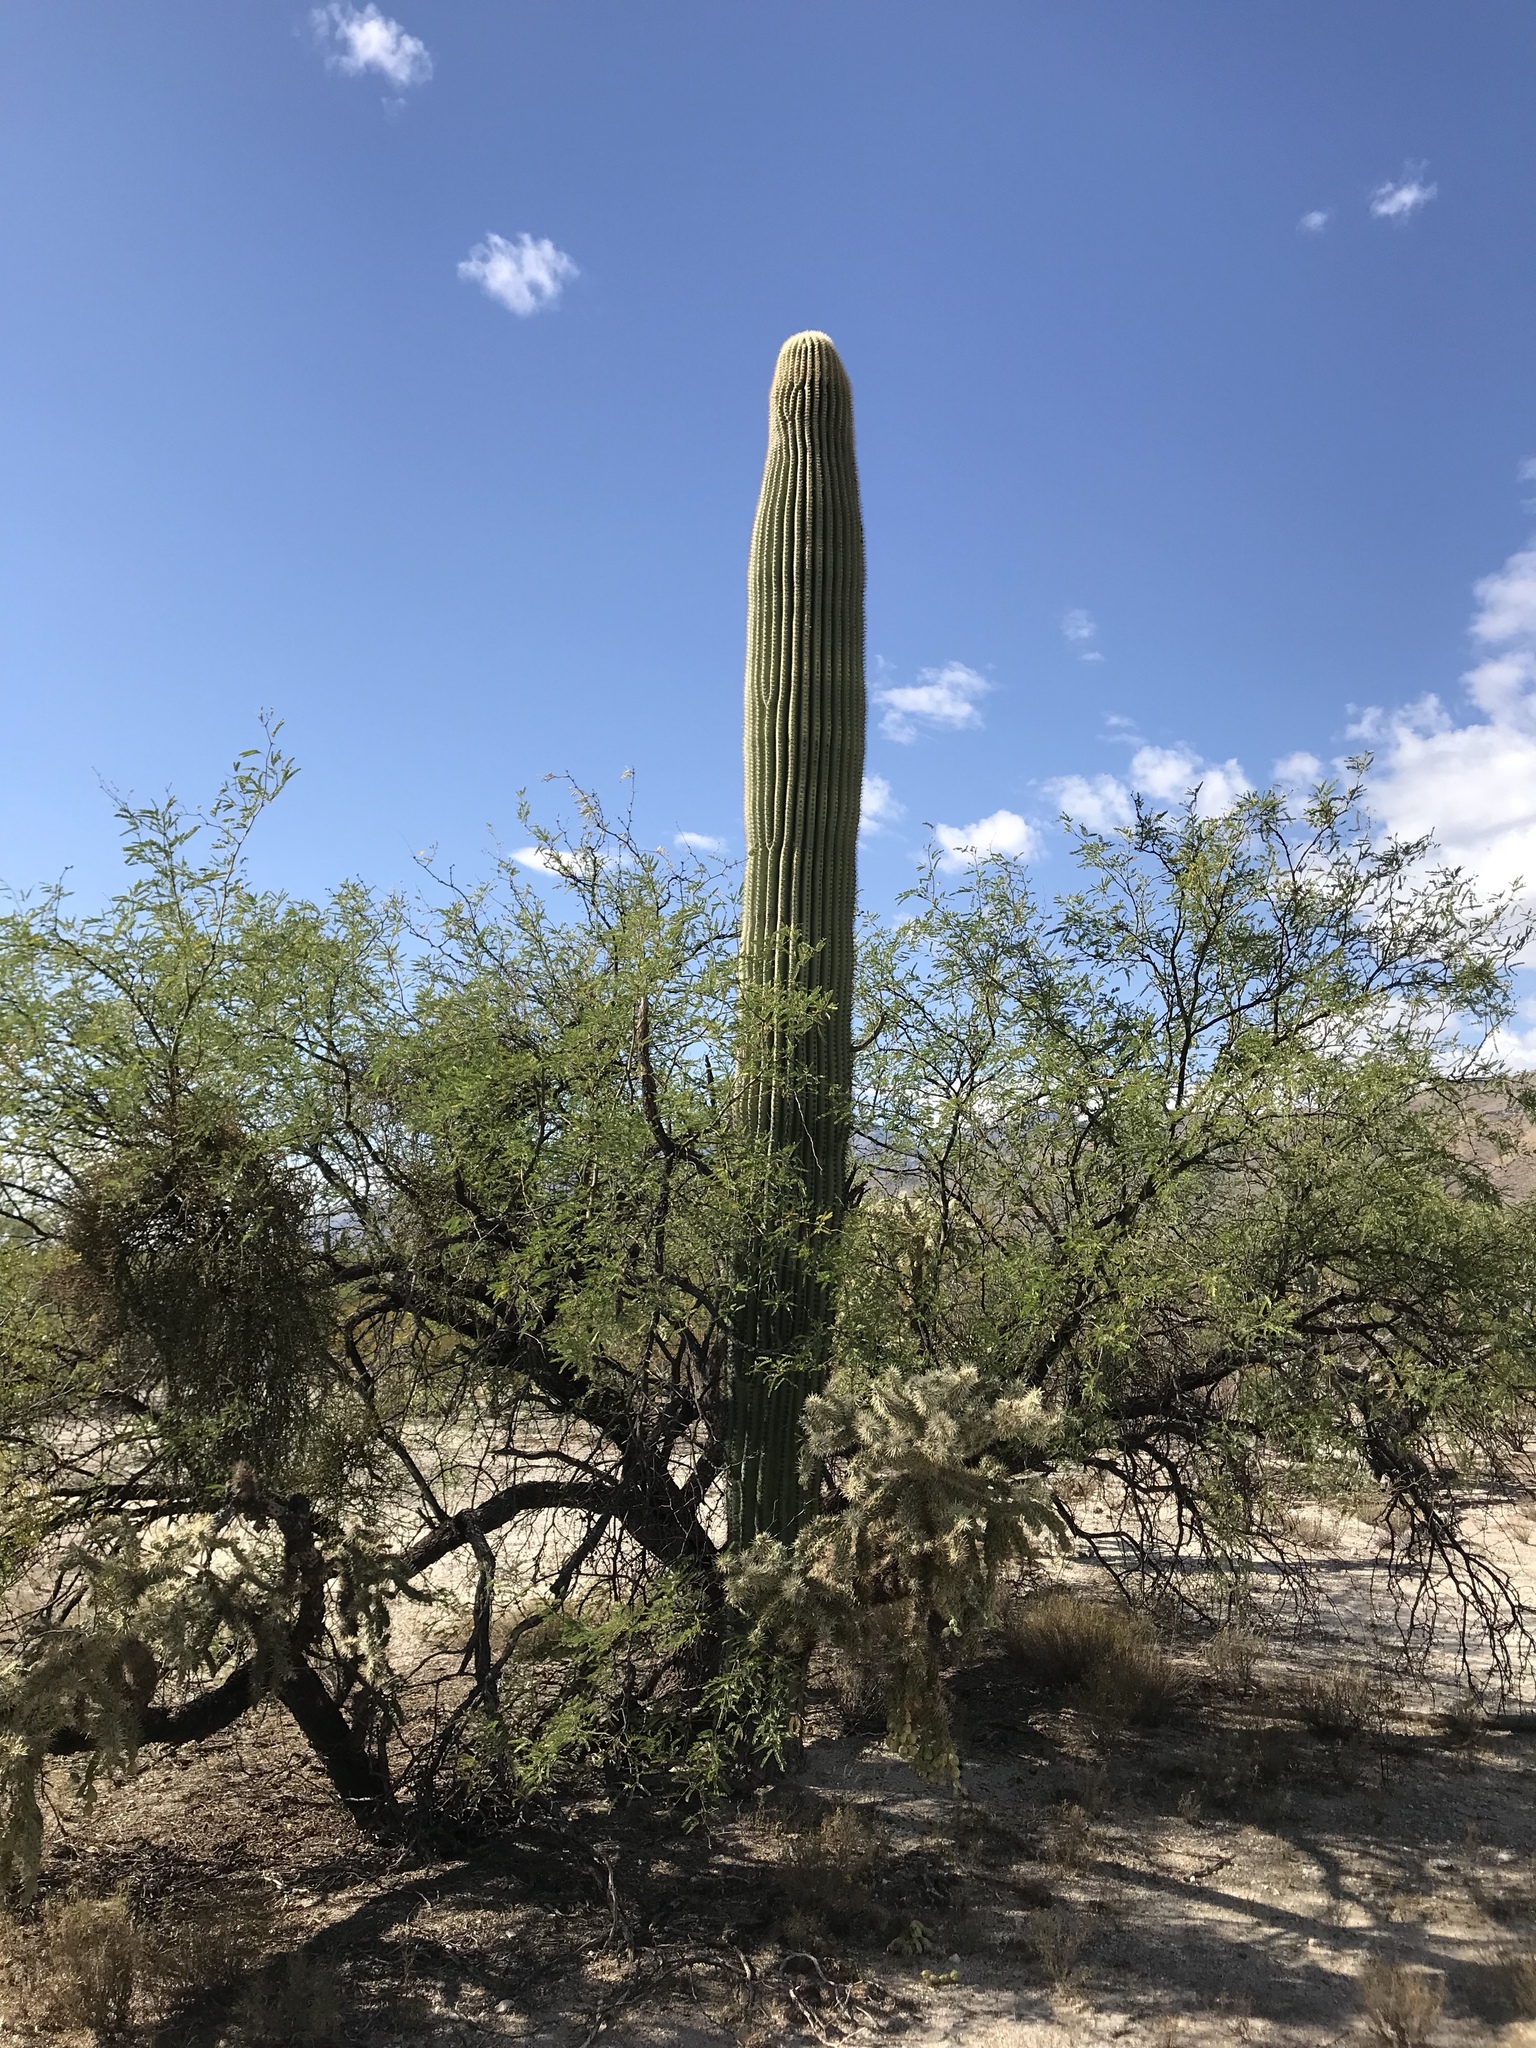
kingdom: Plantae
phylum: Tracheophyta
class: Magnoliopsida
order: Caryophyllales
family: Cactaceae
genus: Carnegiea
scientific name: Carnegiea gigantea
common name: Saguaro
